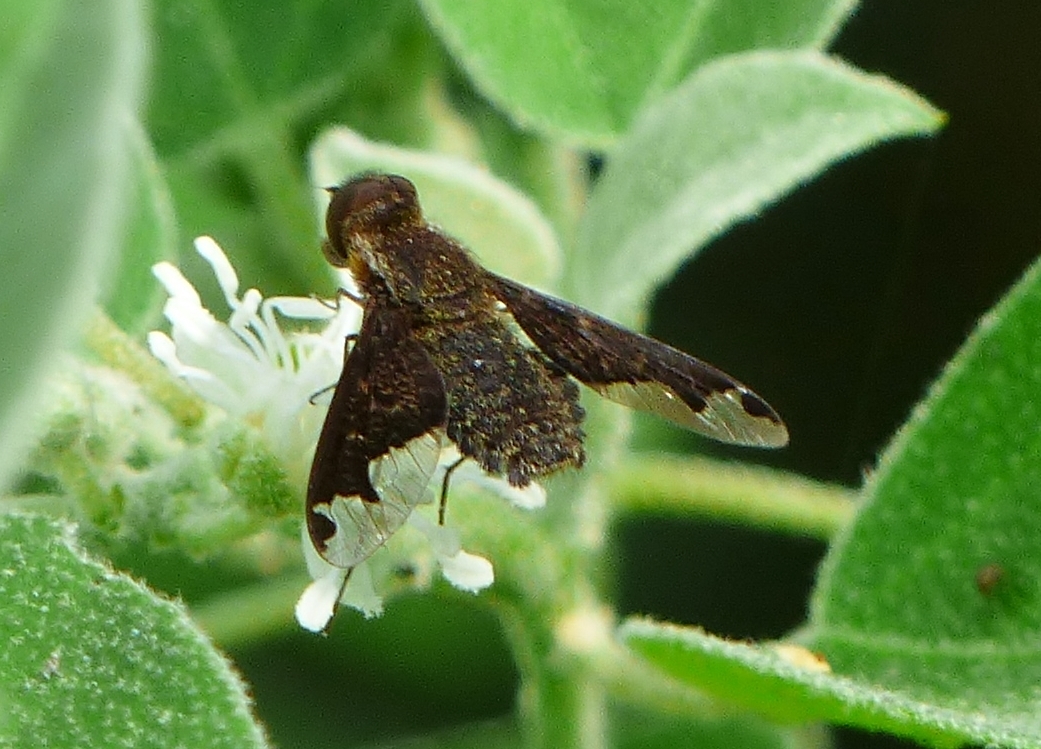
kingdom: Animalia
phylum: Arthropoda
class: Insecta
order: Diptera
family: Bombyliidae
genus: Hemipenthes
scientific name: Hemipenthes sinuosus
